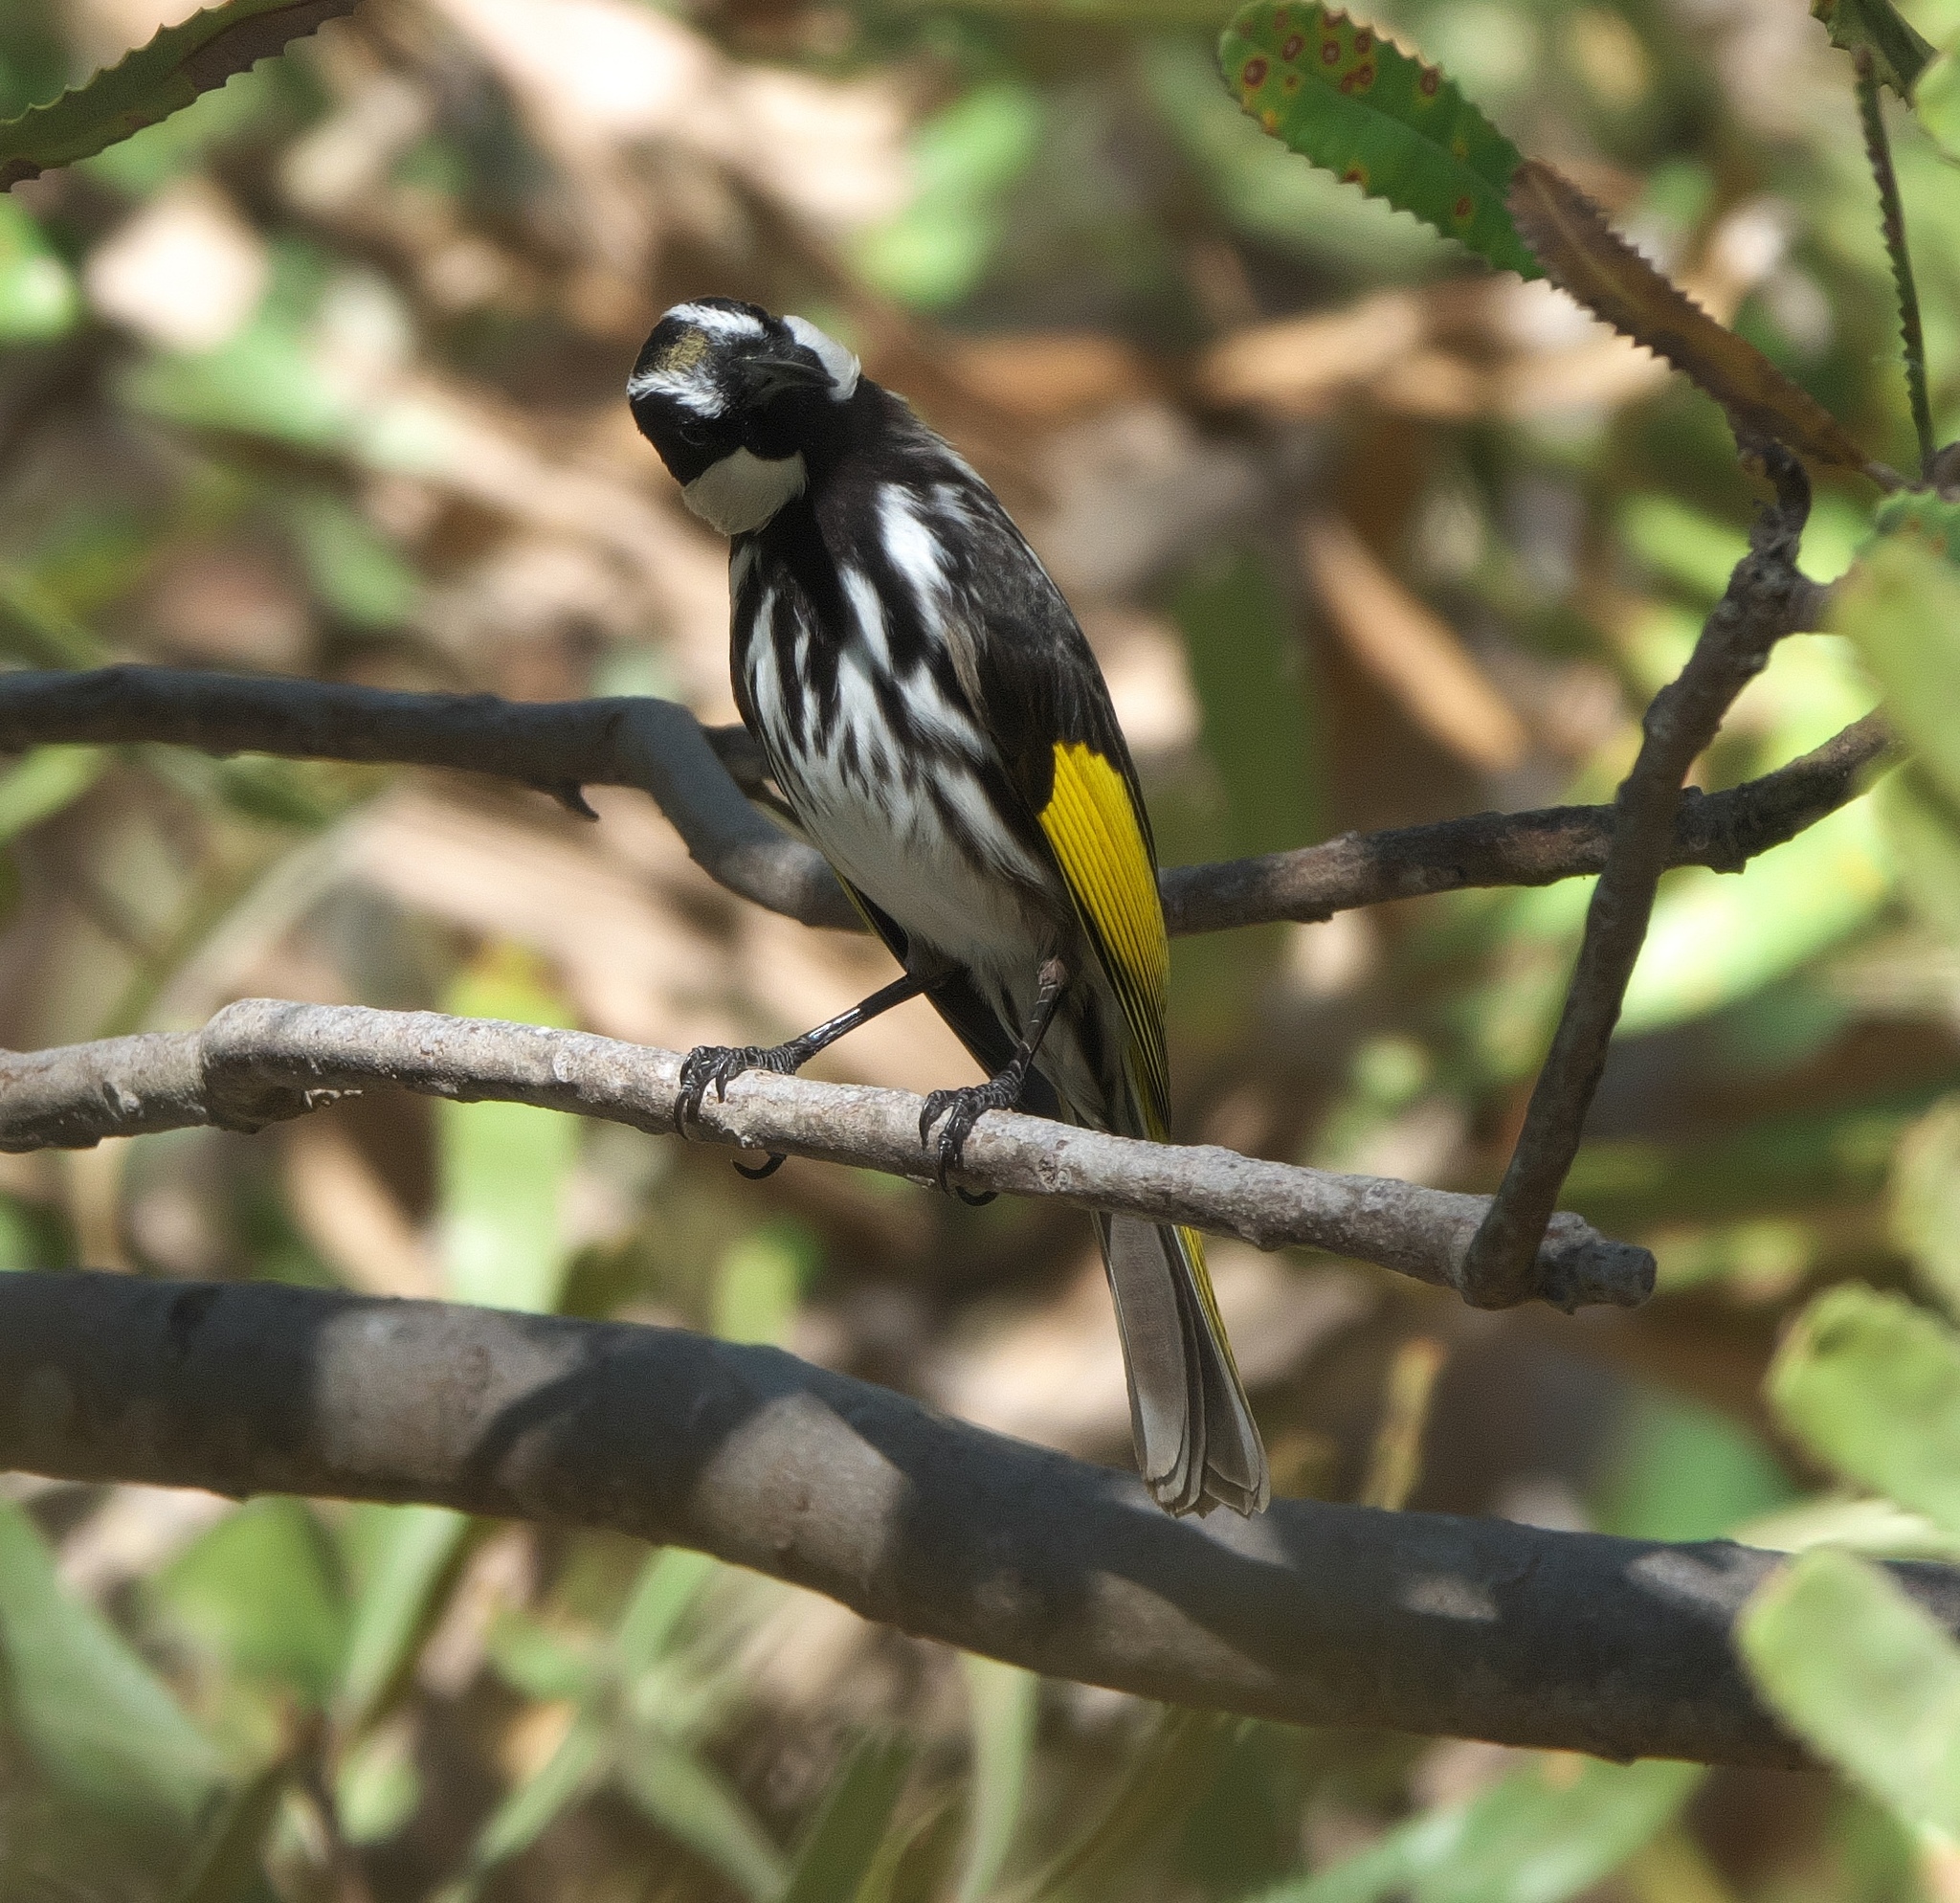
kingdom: Animalia
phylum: Chordata
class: Aves
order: Passeriformes
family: Meliphagidae
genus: Phylidonyris
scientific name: Phylidonyris niger
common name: White-cheeked honeyeater
